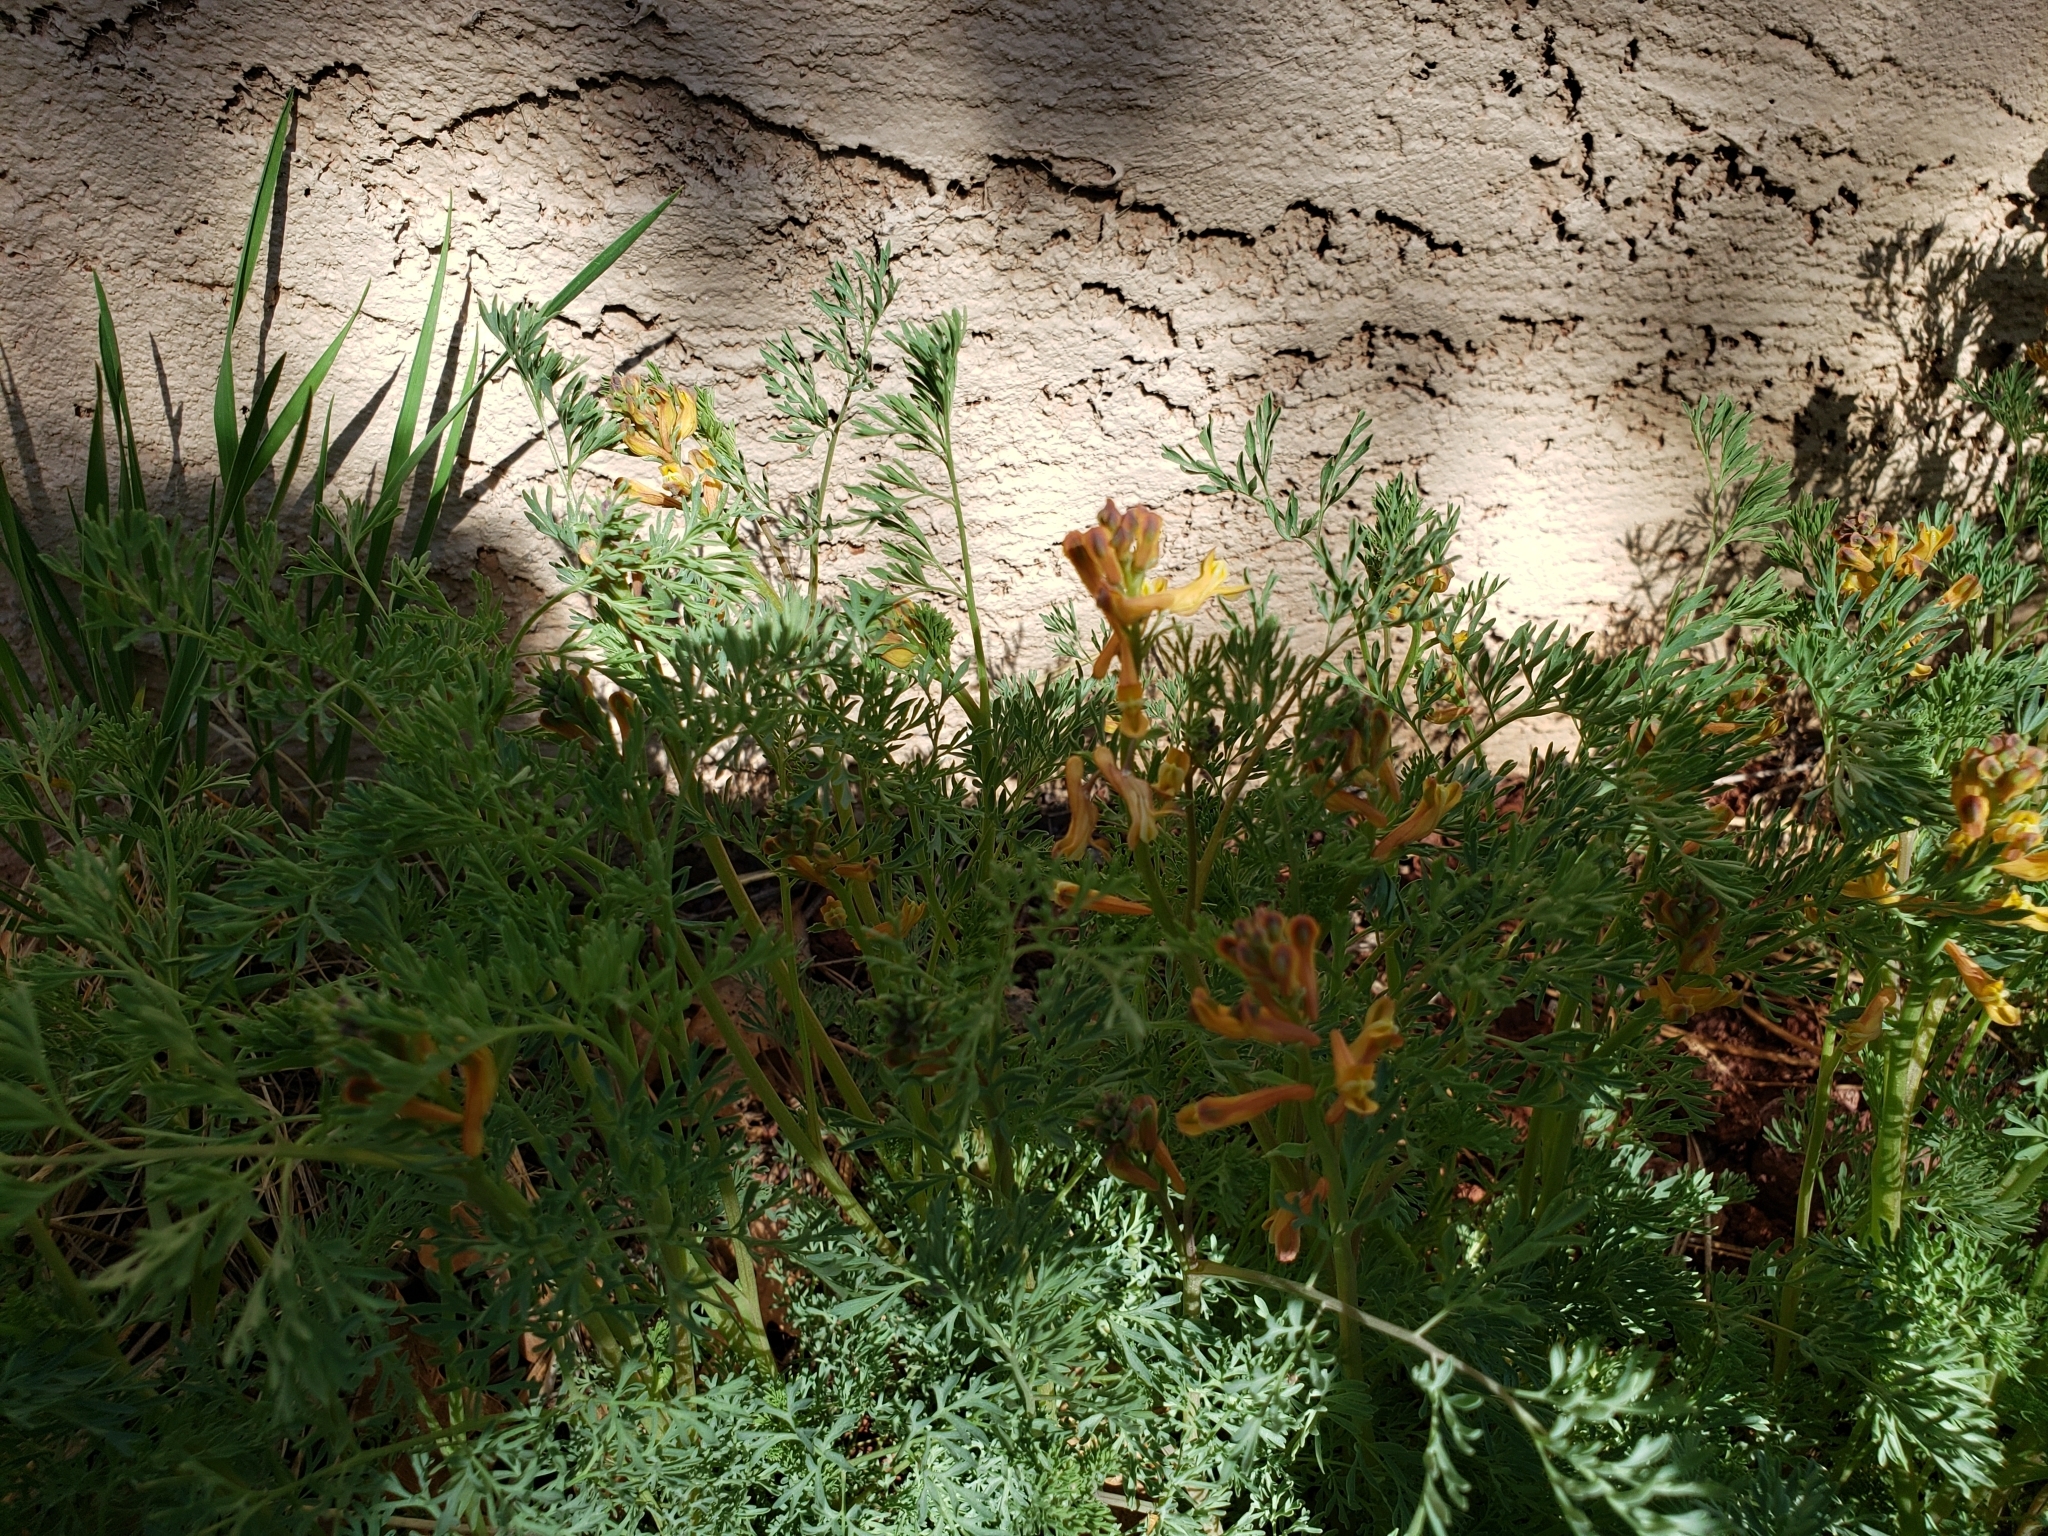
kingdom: Plantae
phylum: Tracheophyta
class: Magnoliopsida
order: Ranunculales
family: Papaveraceae
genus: Corydalis
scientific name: Corydalis aurea
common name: Golden corydalis
